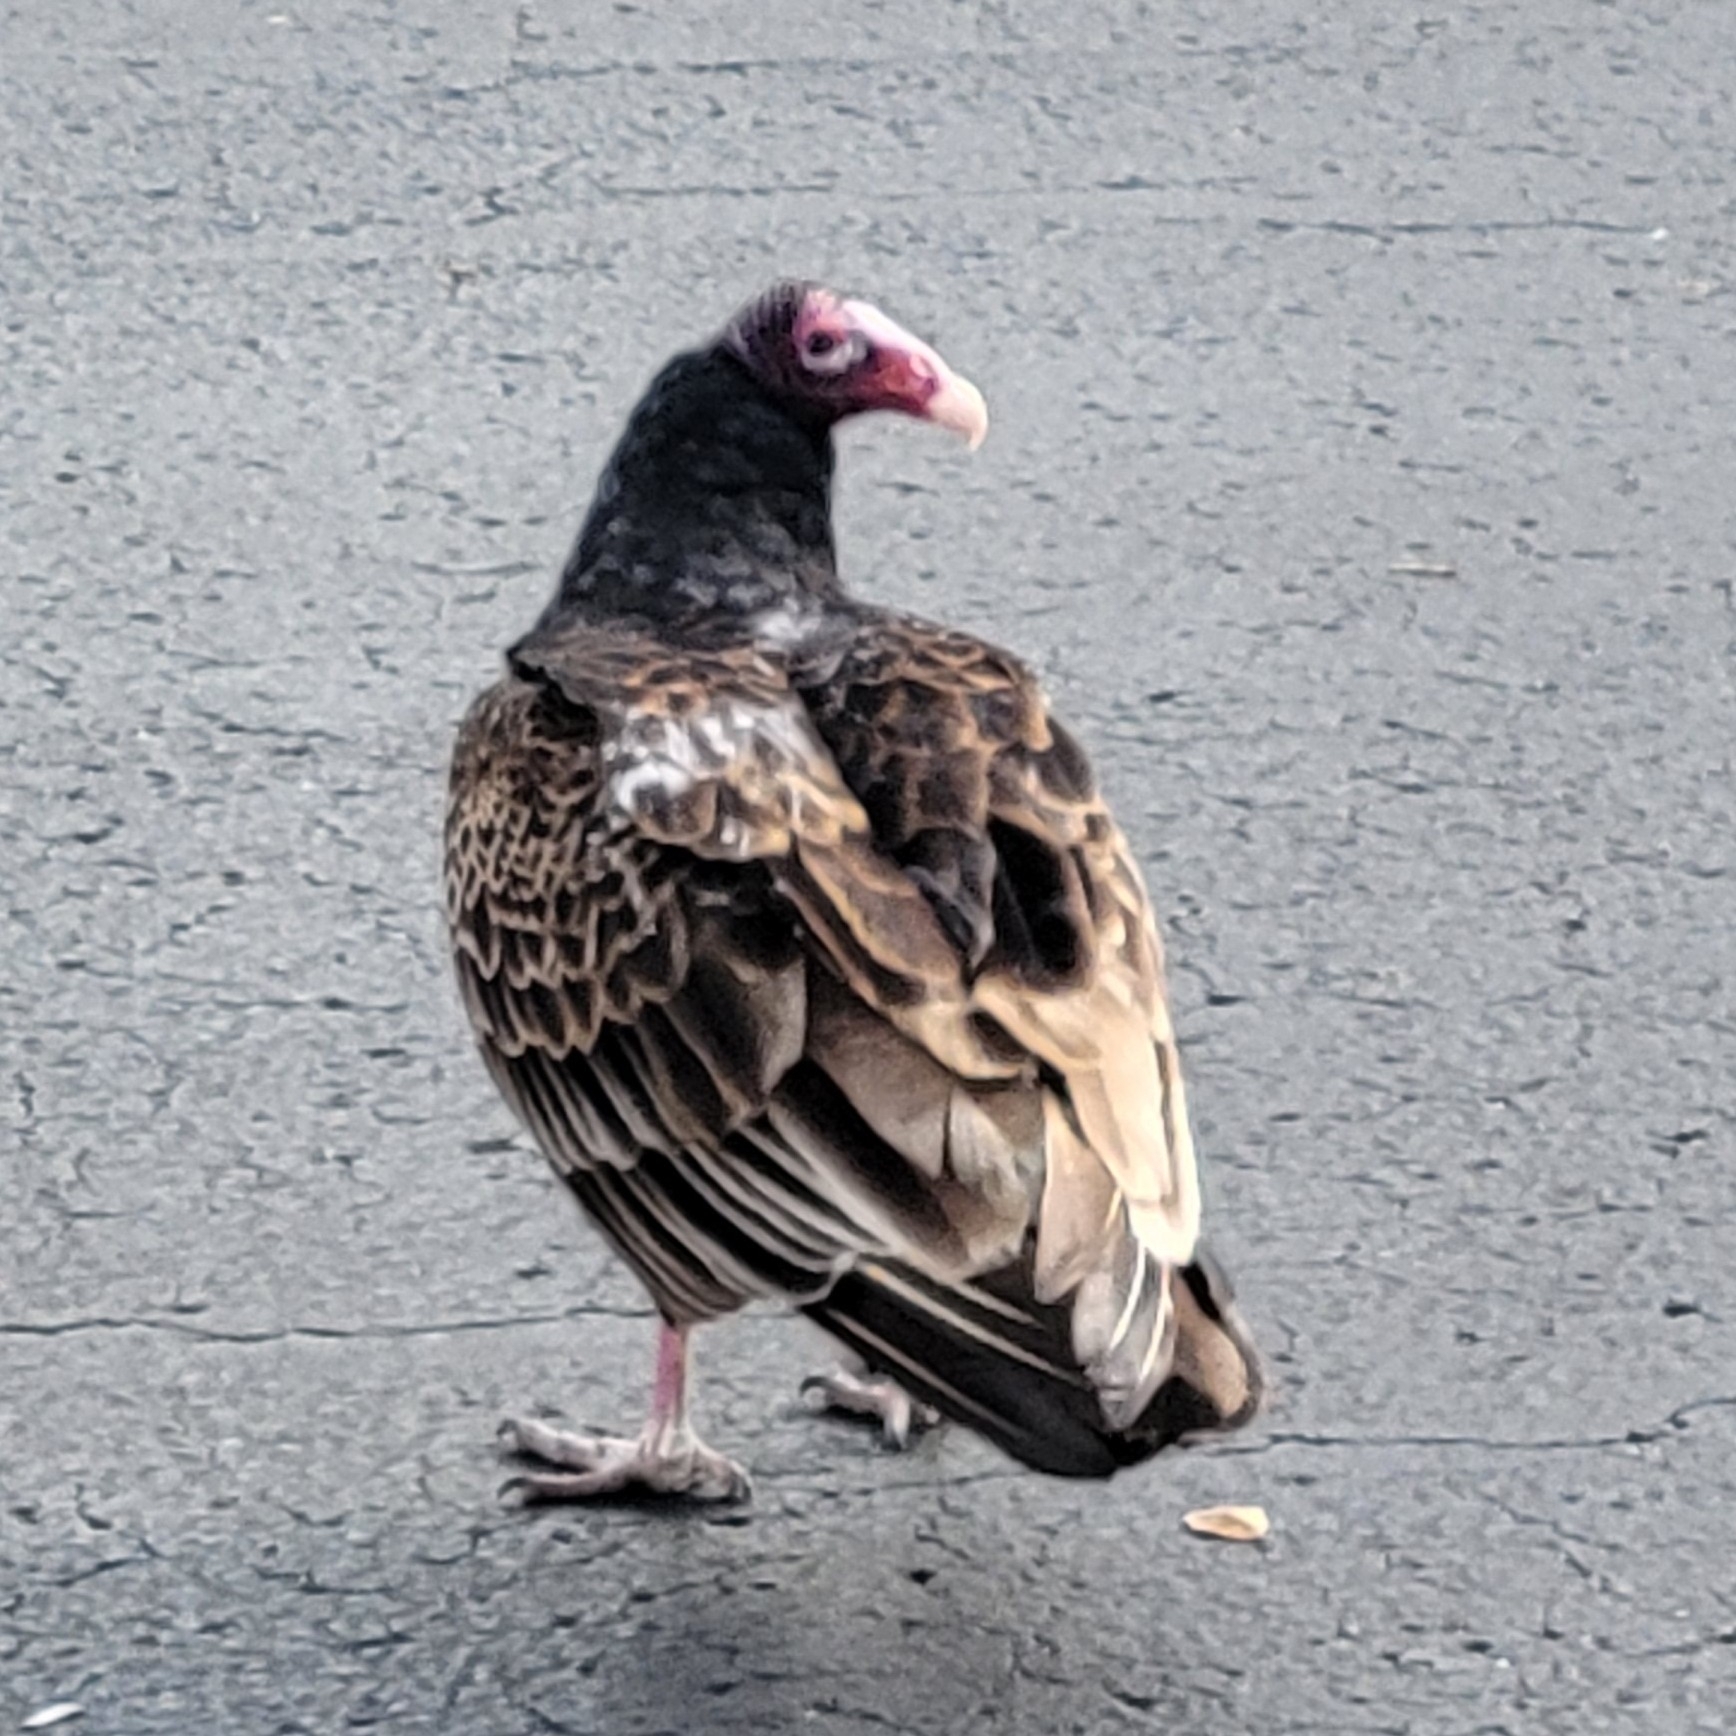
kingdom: Animalia
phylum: Chordata
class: Aves
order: Accipitriformes
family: Cathartidae
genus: Cathartes
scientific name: Cathartes aura
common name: Turkey vulture
